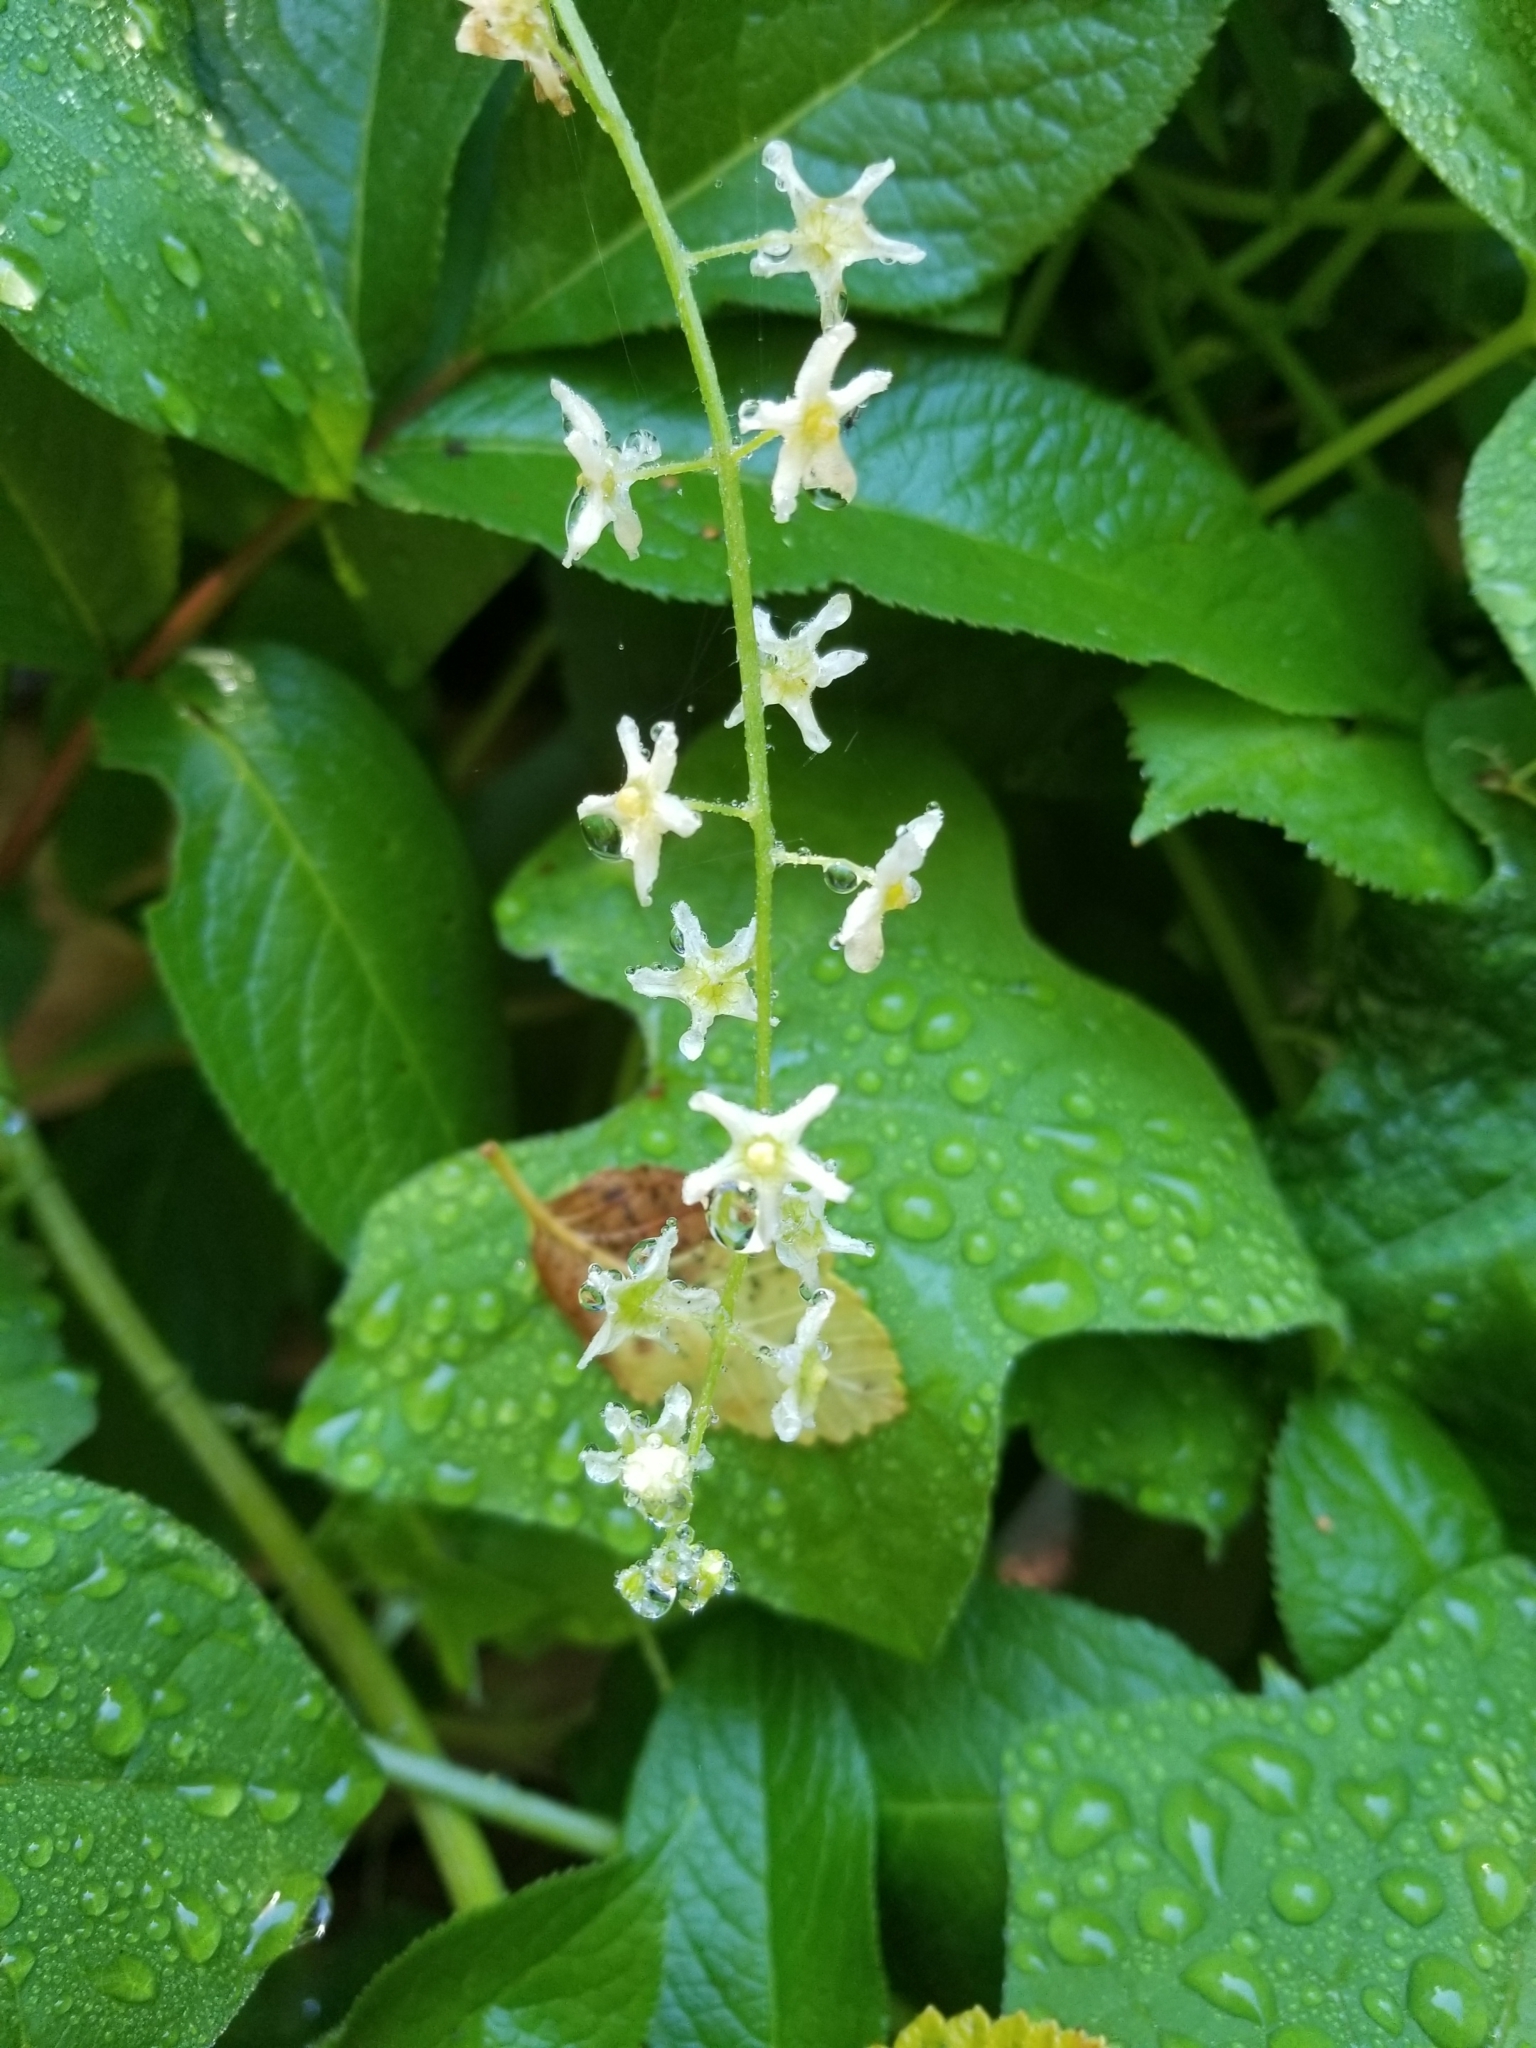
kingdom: Plantae
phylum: Tracheophyta
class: Magnoliopsida
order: Cucurbitales
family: Cucurbitaceae
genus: Marah
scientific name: Marah fabacea
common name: California manroot
